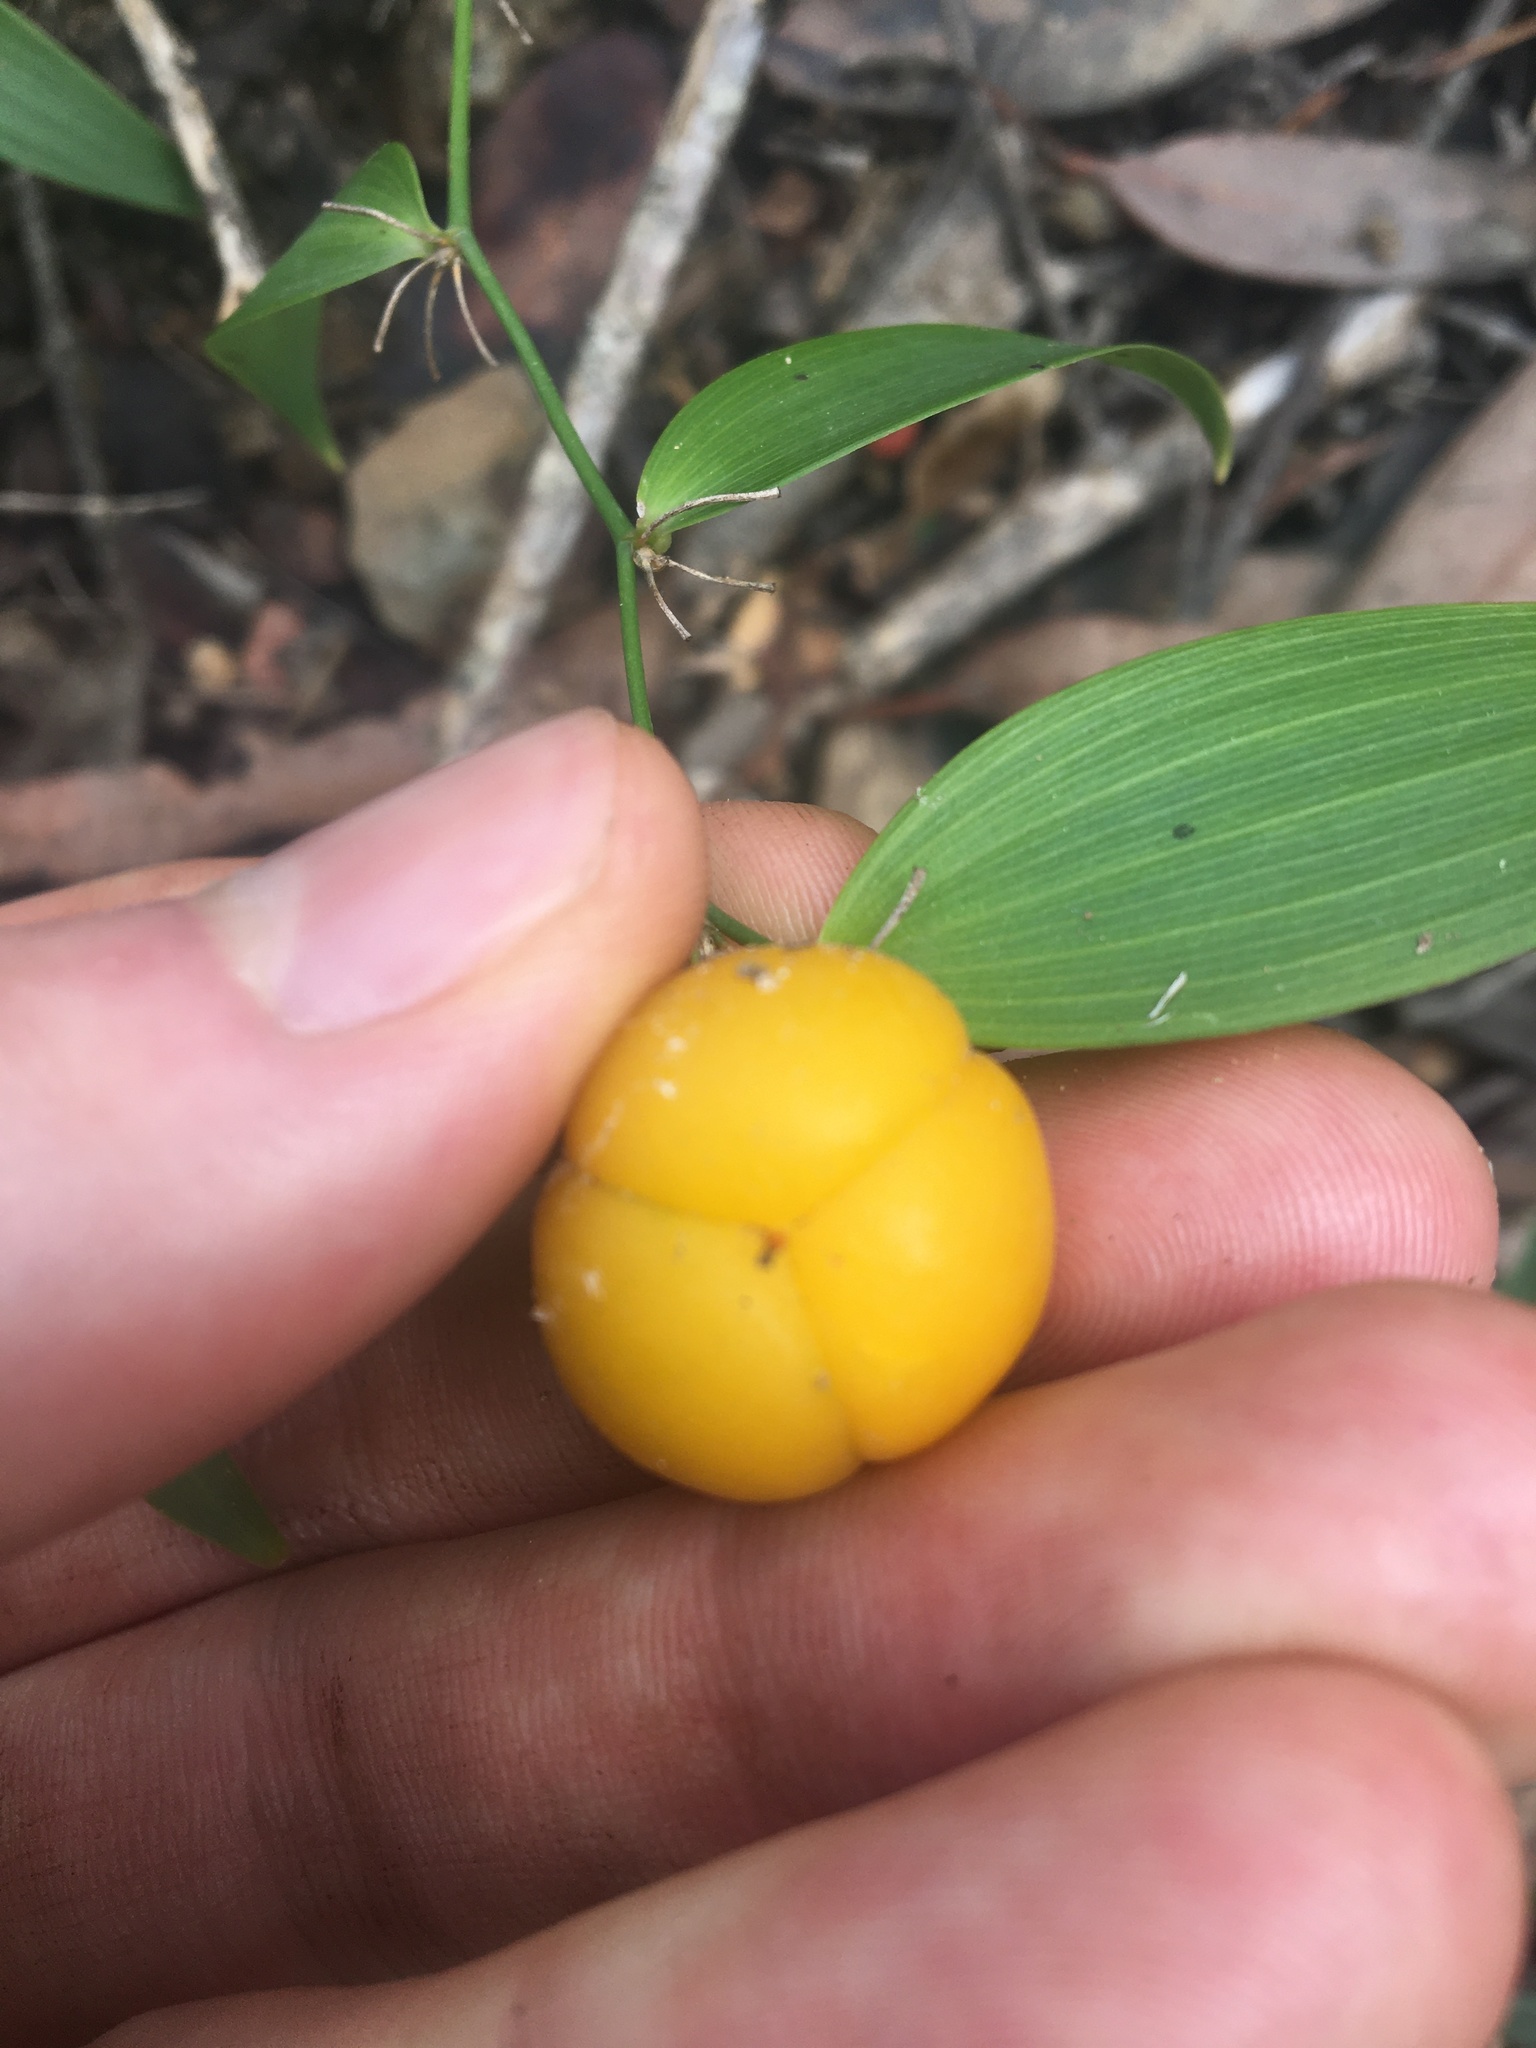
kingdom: Plantae
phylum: Tracheophyta
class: Liliopsida
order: Asparagales
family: Asparagaceae
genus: Eustrephus
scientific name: Eustrephus latifolius
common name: Orangevine
